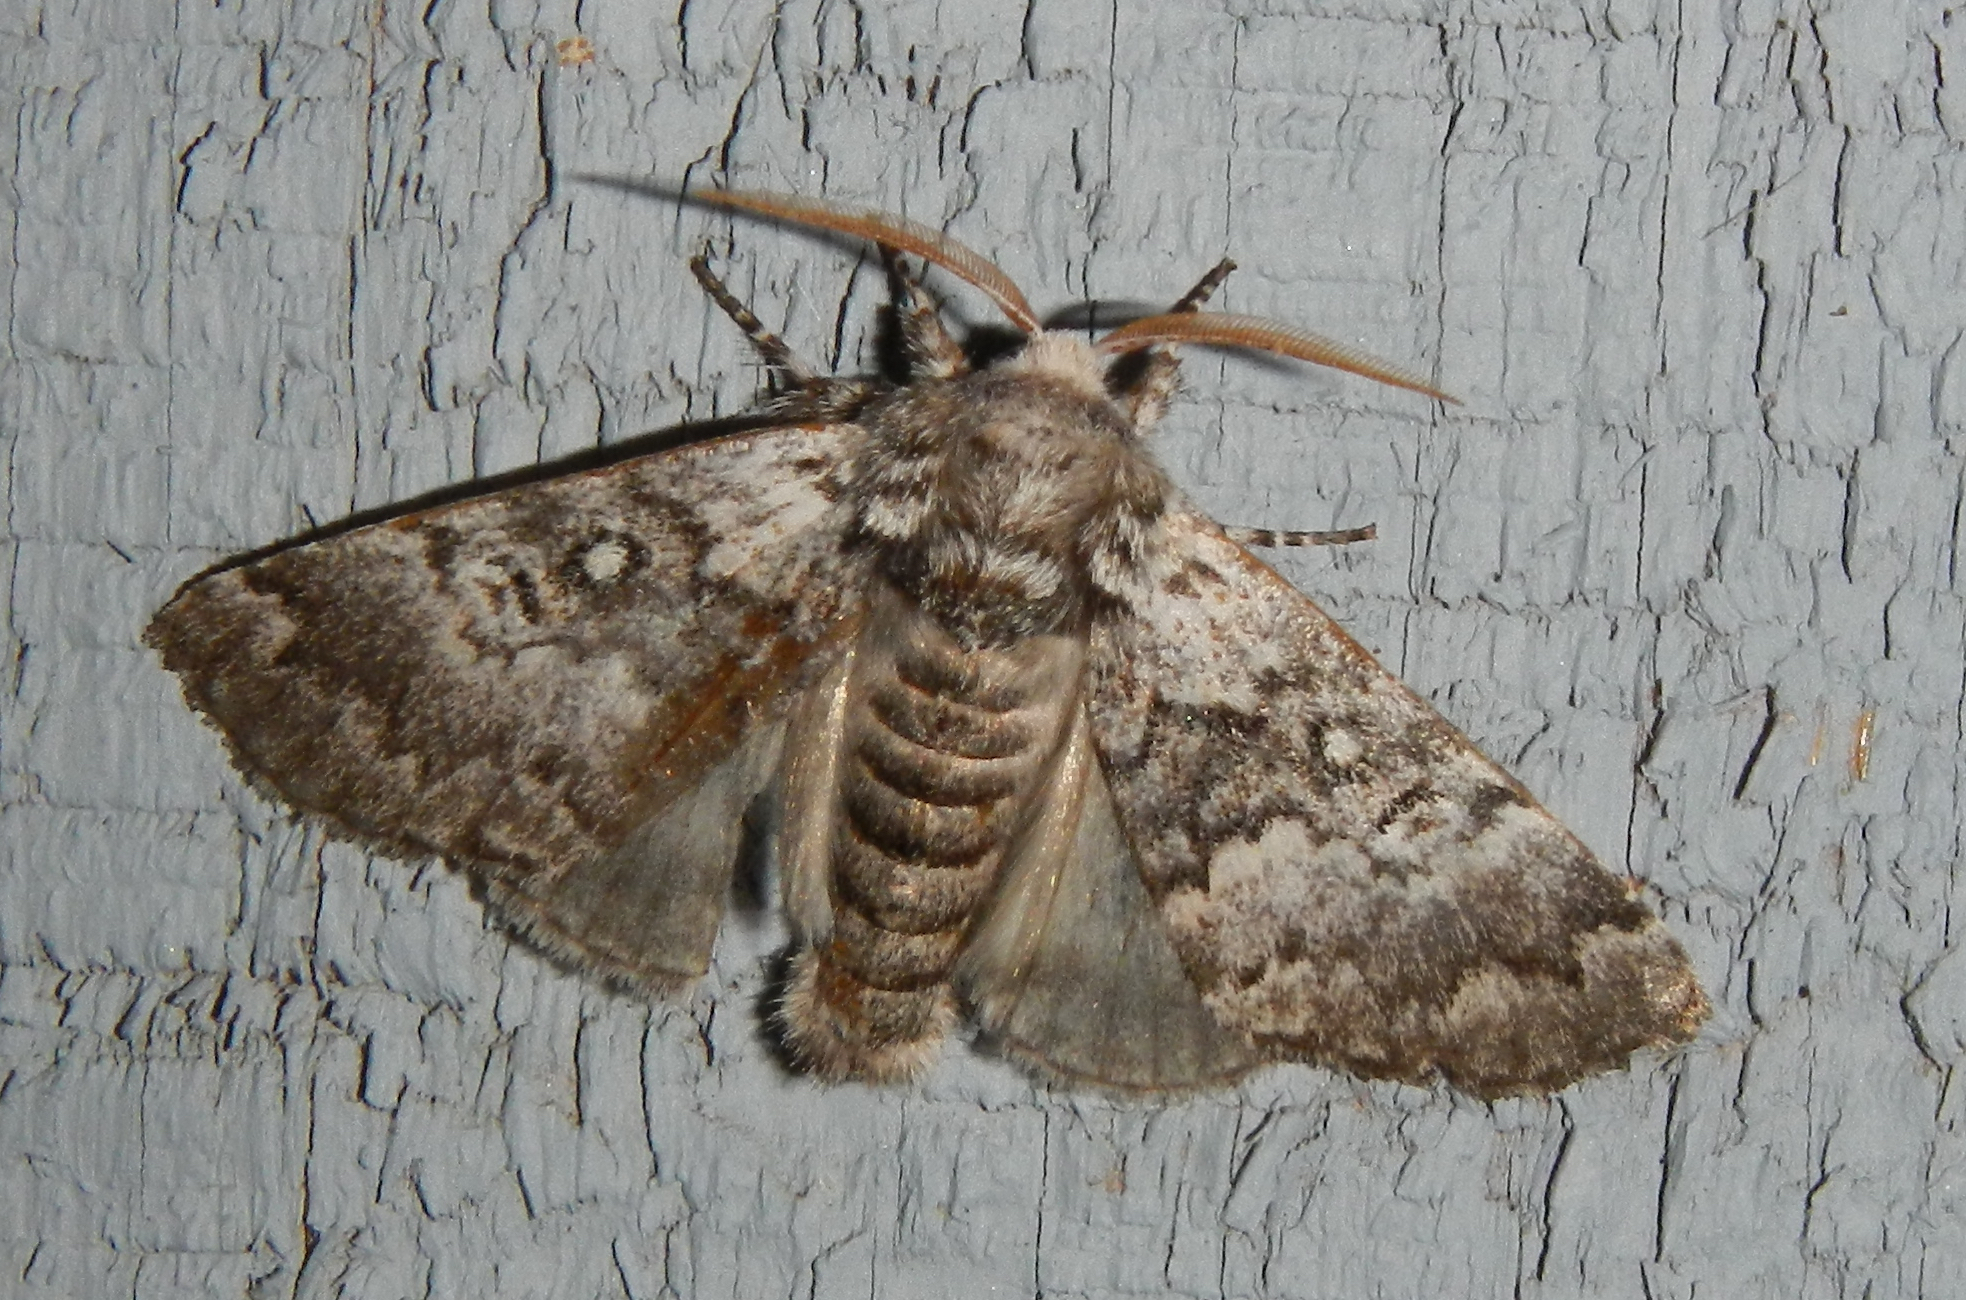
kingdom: Animalia
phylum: Arthropoda
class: Insecta
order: Lepidoptera
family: Noctuidae
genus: Colocasia
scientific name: Colocasia propinquilinea
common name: Close-banded demas
